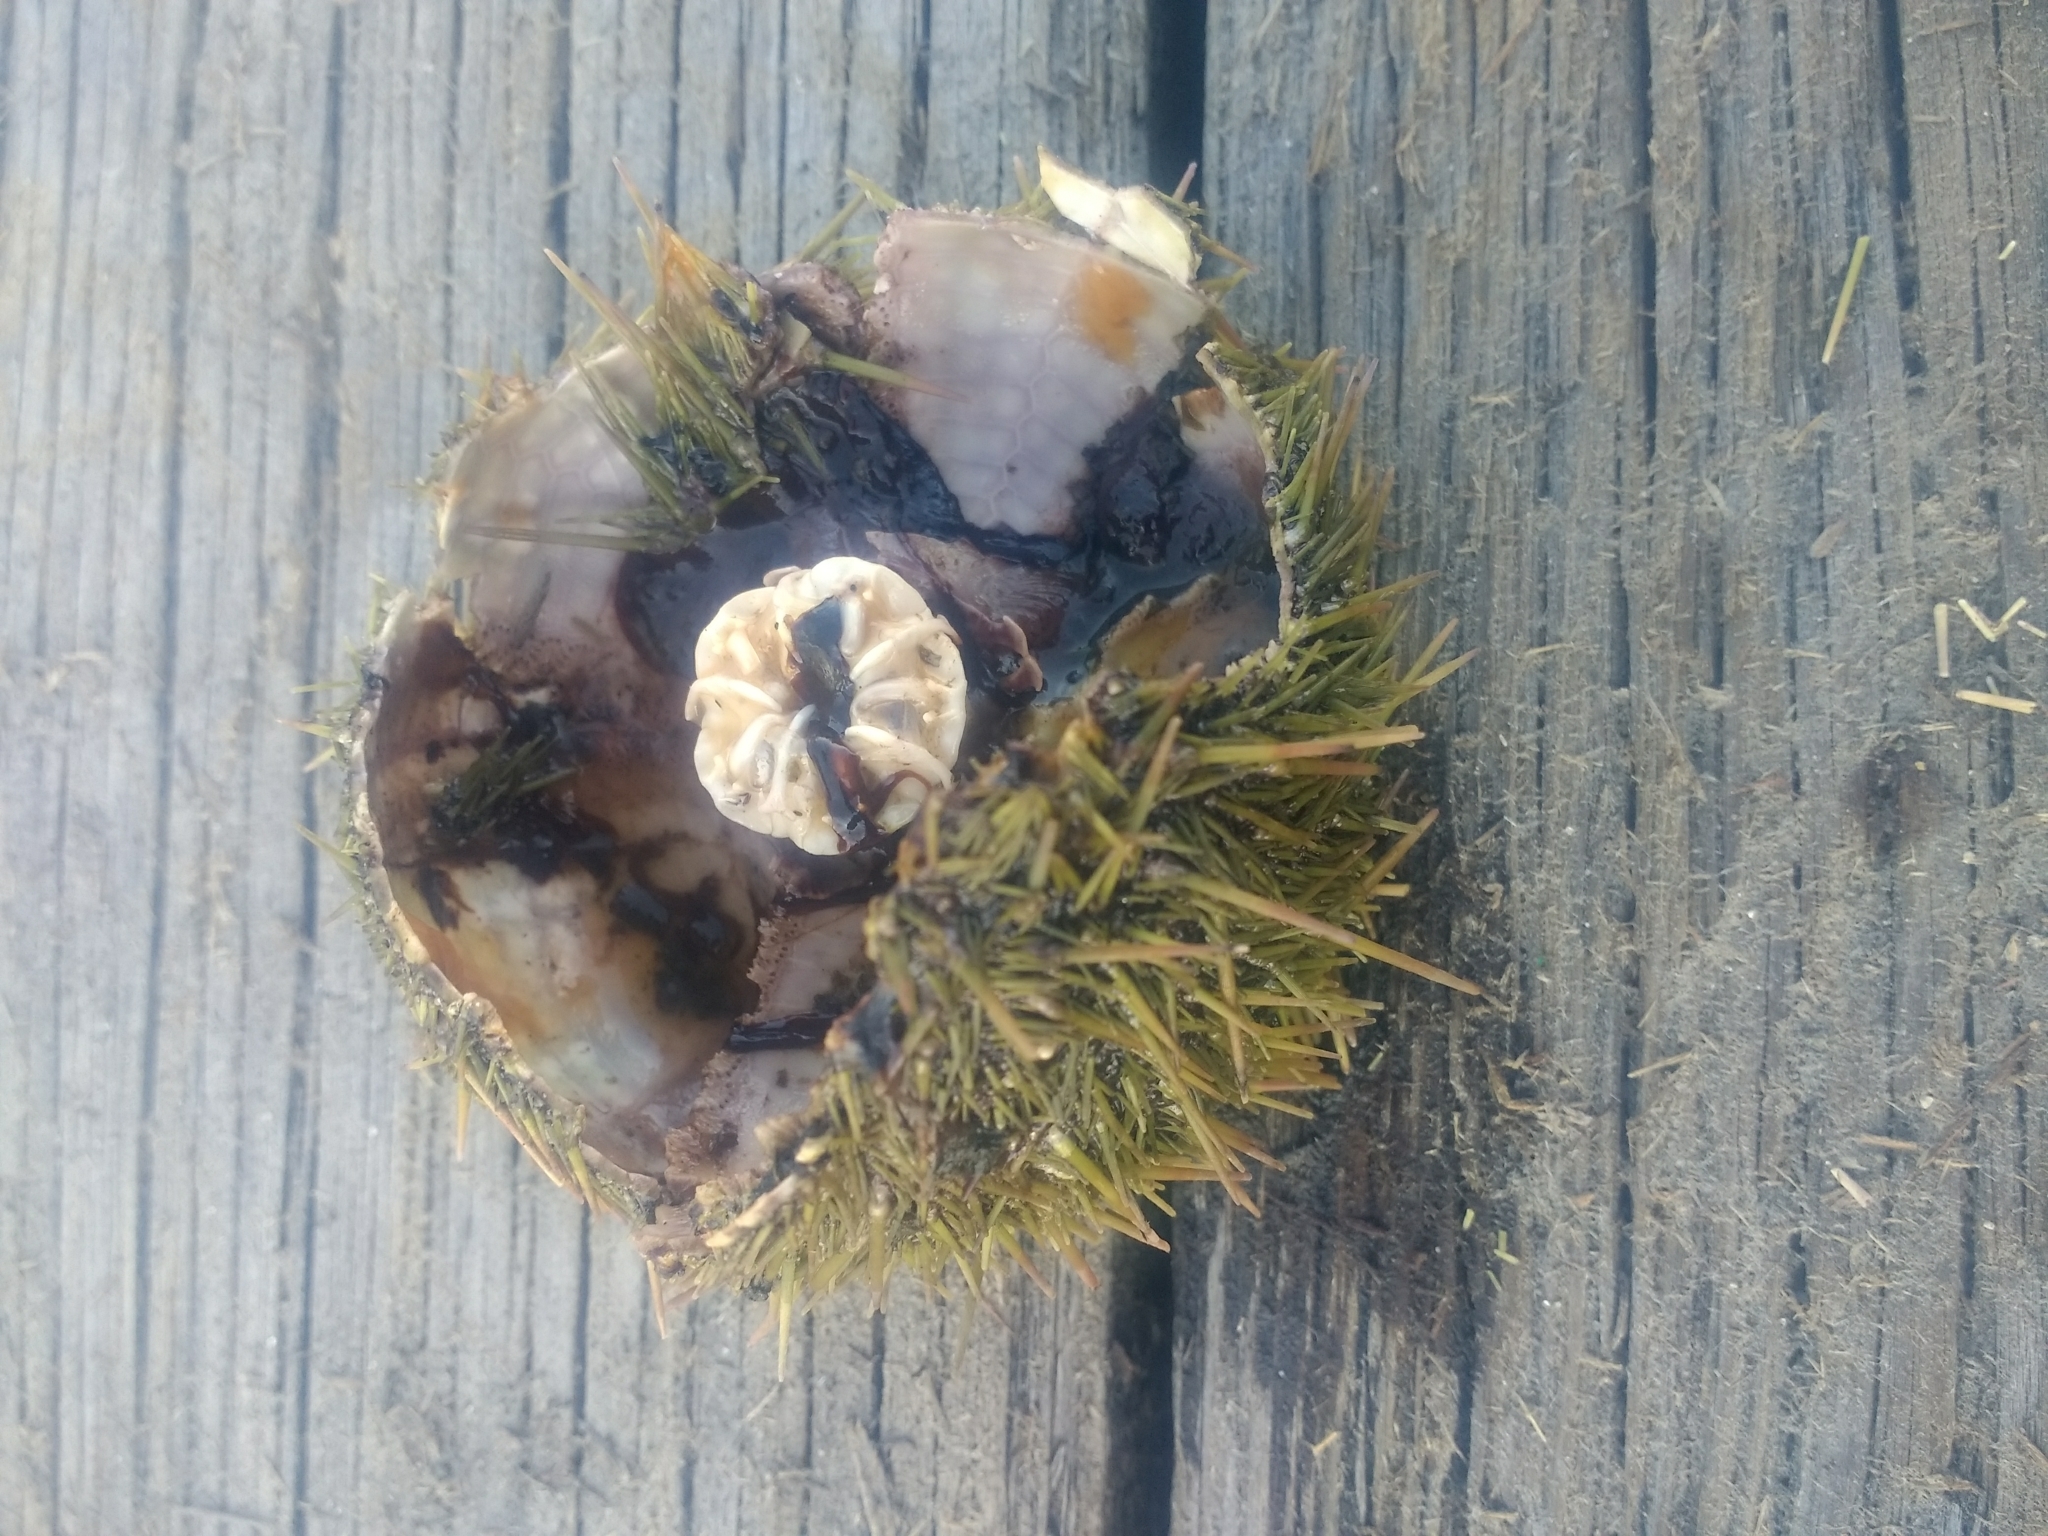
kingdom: Animalia
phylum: Echinodermata
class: Echinoidea
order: Camarodonta
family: Strongylocentrotidae
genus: Strongylocentrotus
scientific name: Strongylocentrotus droebachiensis
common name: Northern sea urchin
